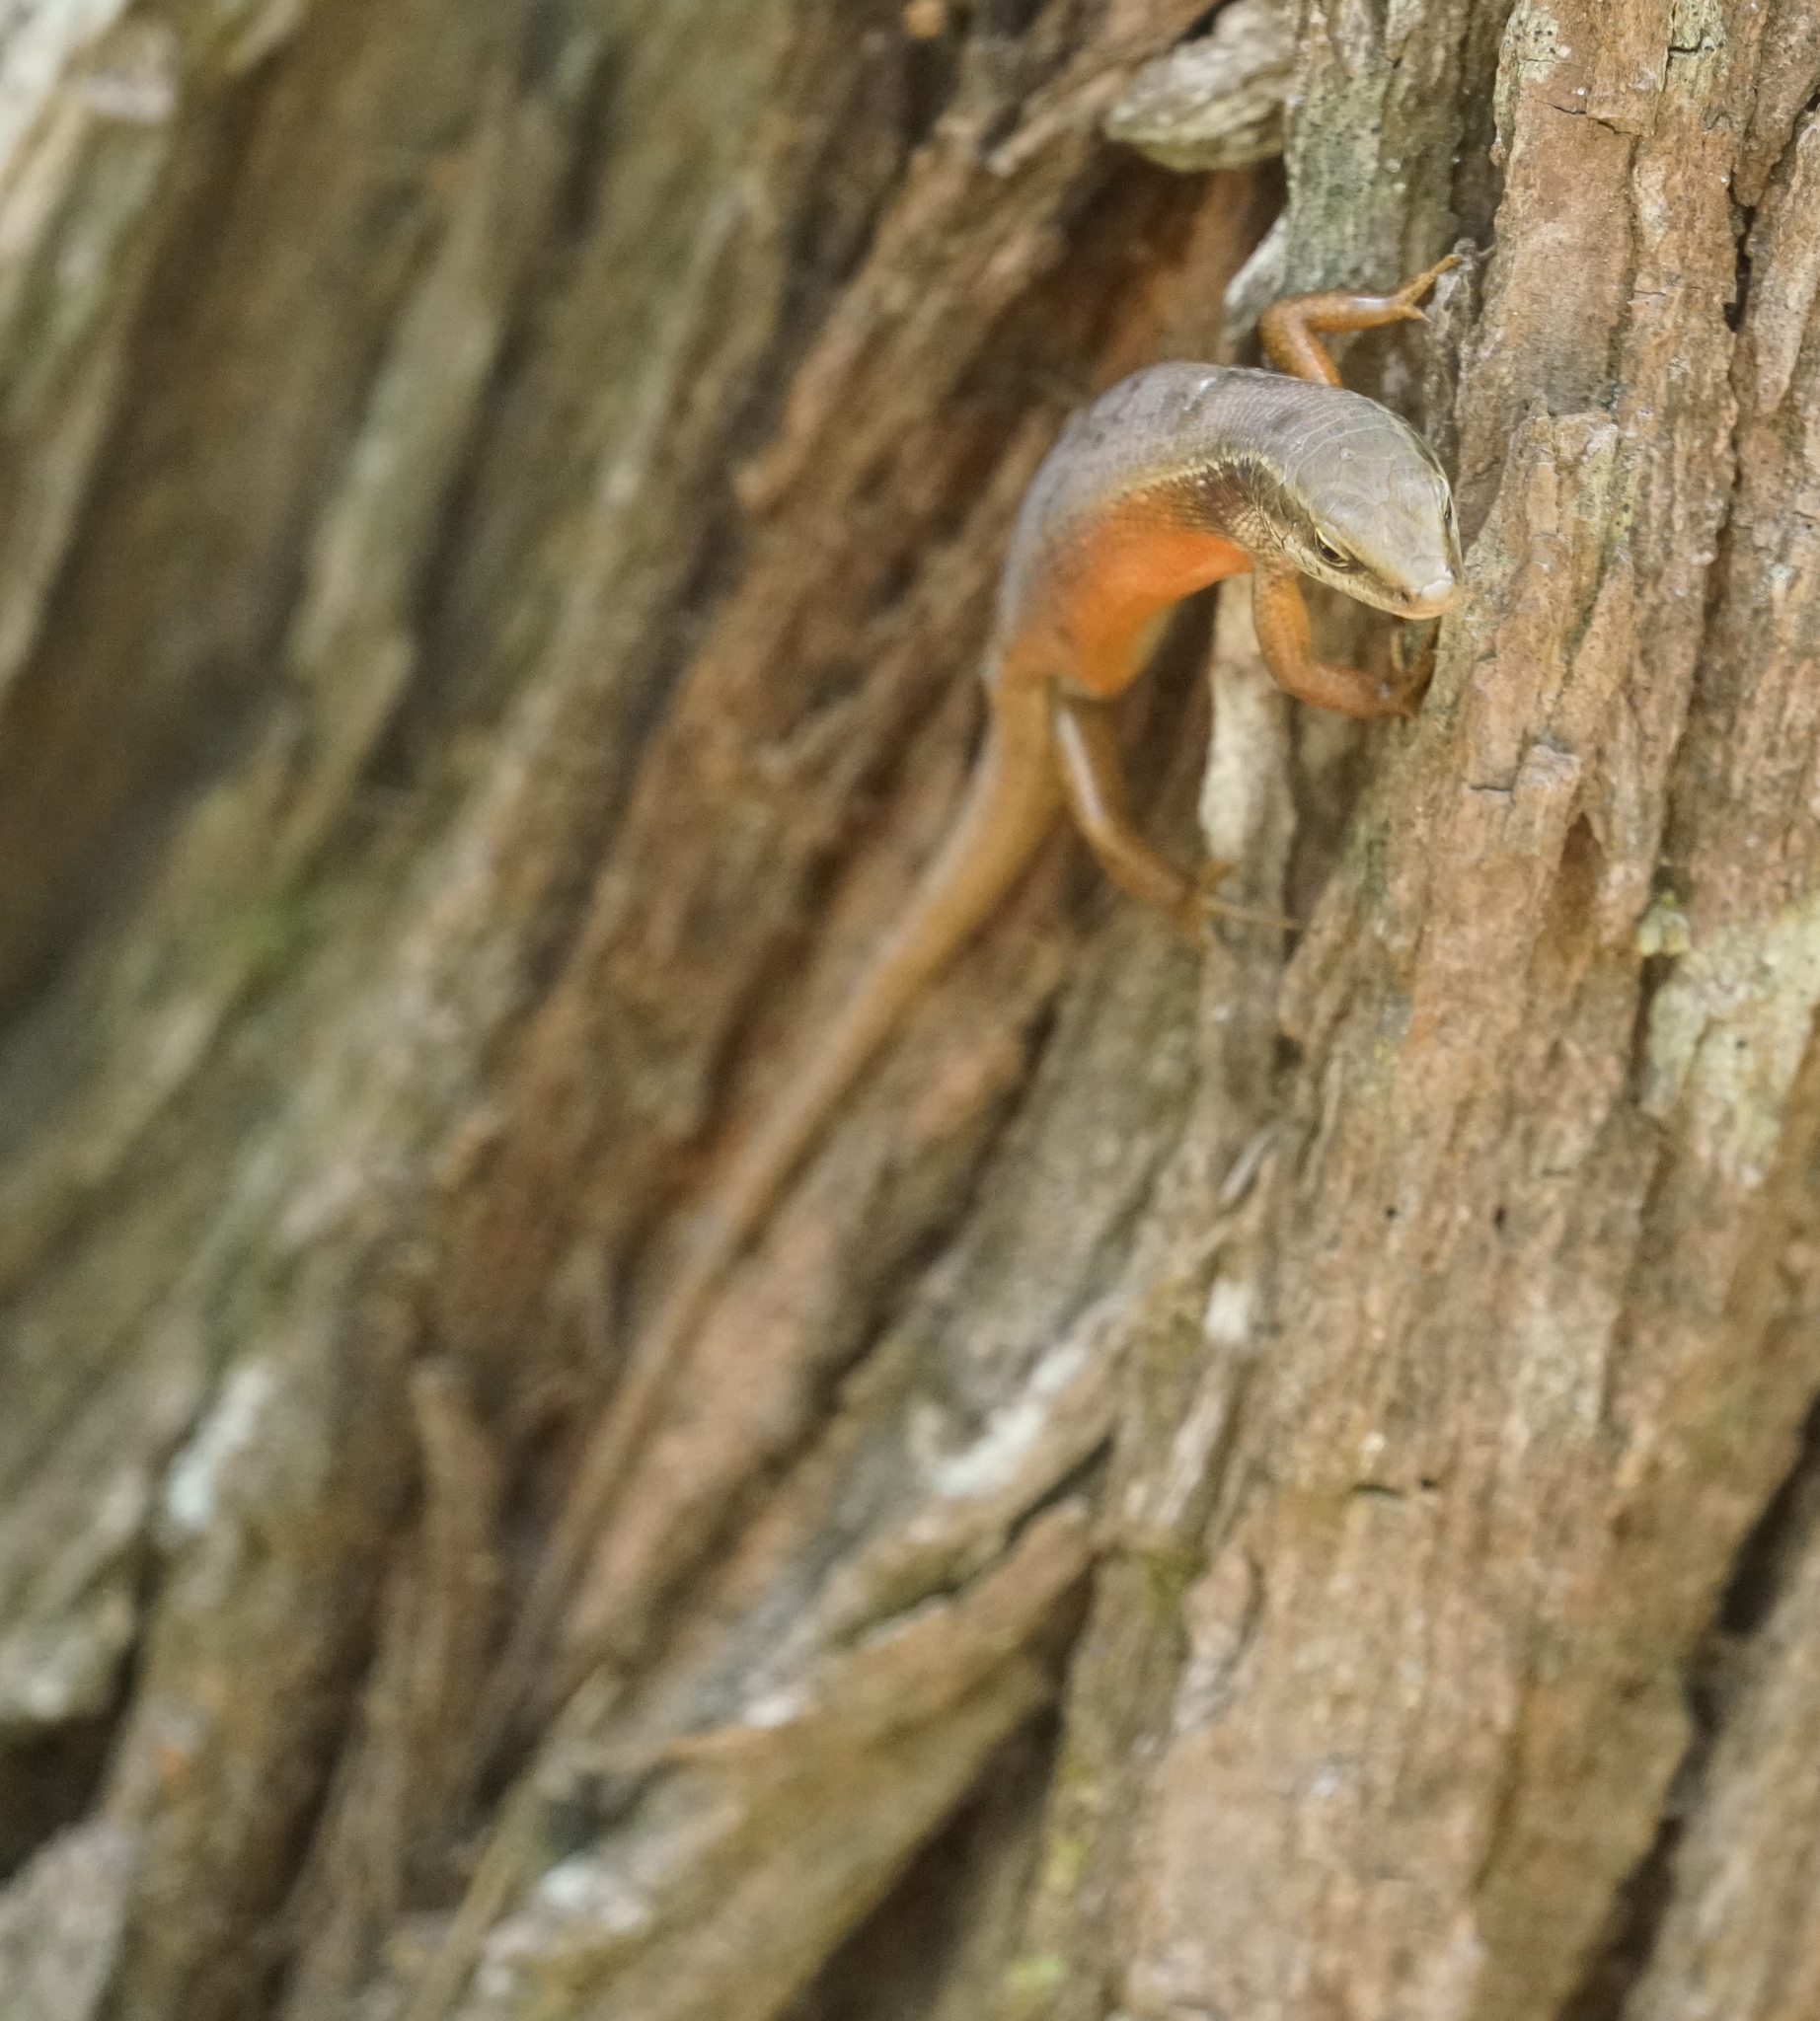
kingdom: Animalia
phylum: Chordata
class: Squamata
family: Scincidae
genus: Carlia
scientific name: Carlia longipes
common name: Closed-litter rainbow-skink
